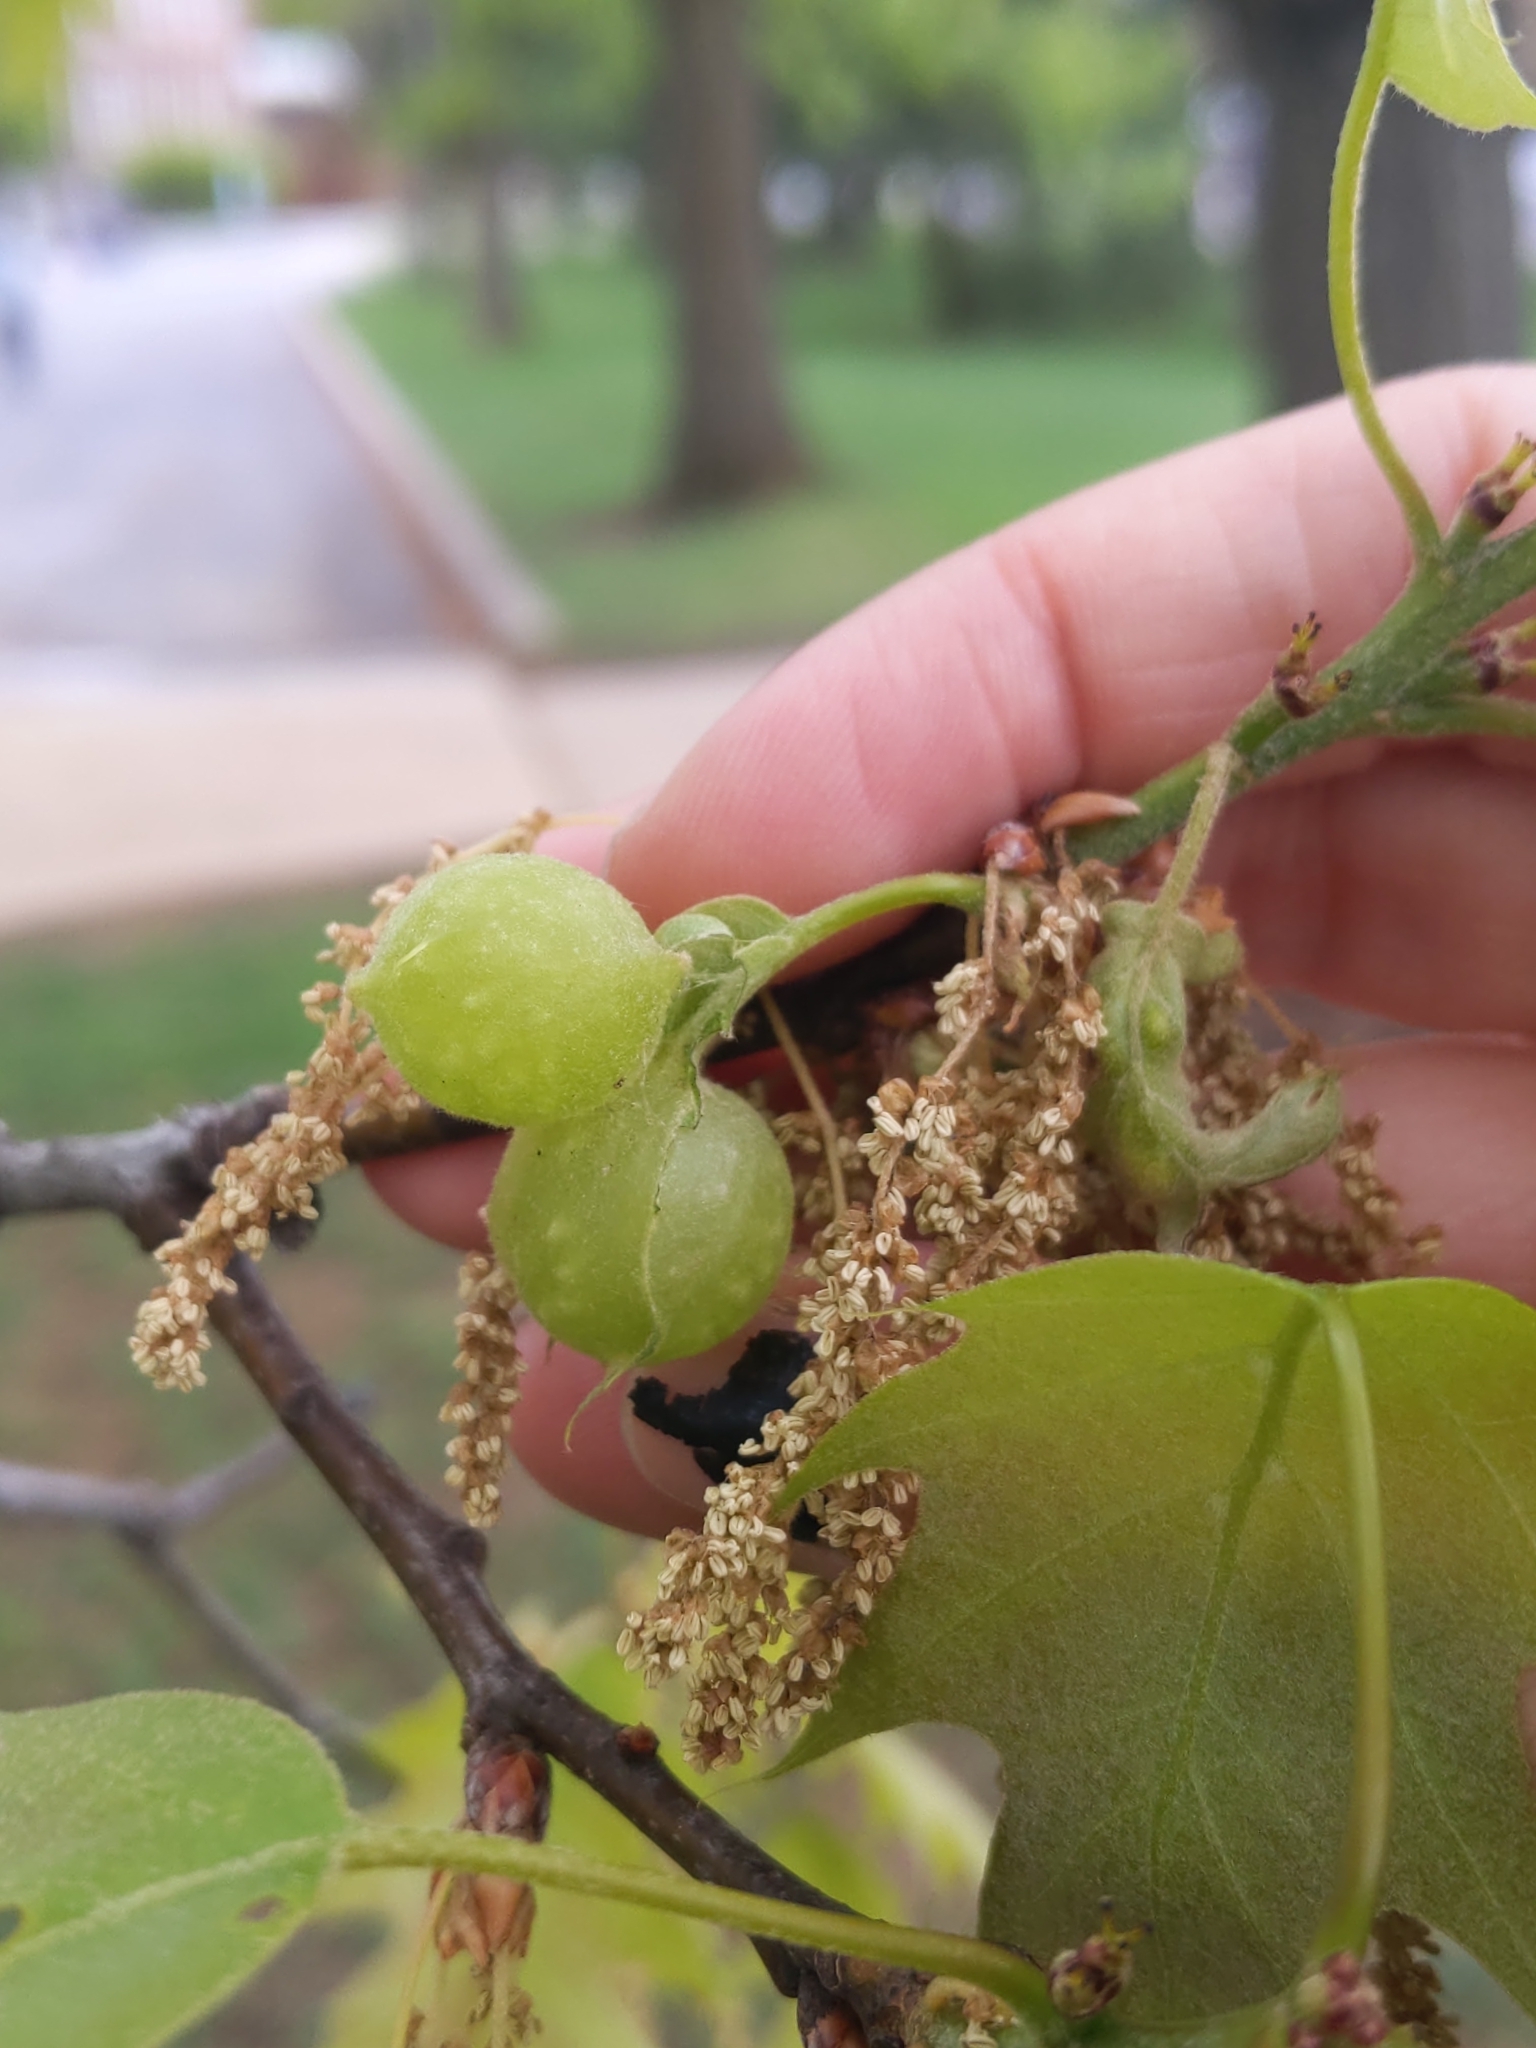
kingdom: Animalia
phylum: Arthropoda
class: Insecta
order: Hymenoptera
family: Cynipidae
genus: Dryocosmus
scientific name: Dryocosmus quercuspalustris
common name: Succulent oak gall wasp
